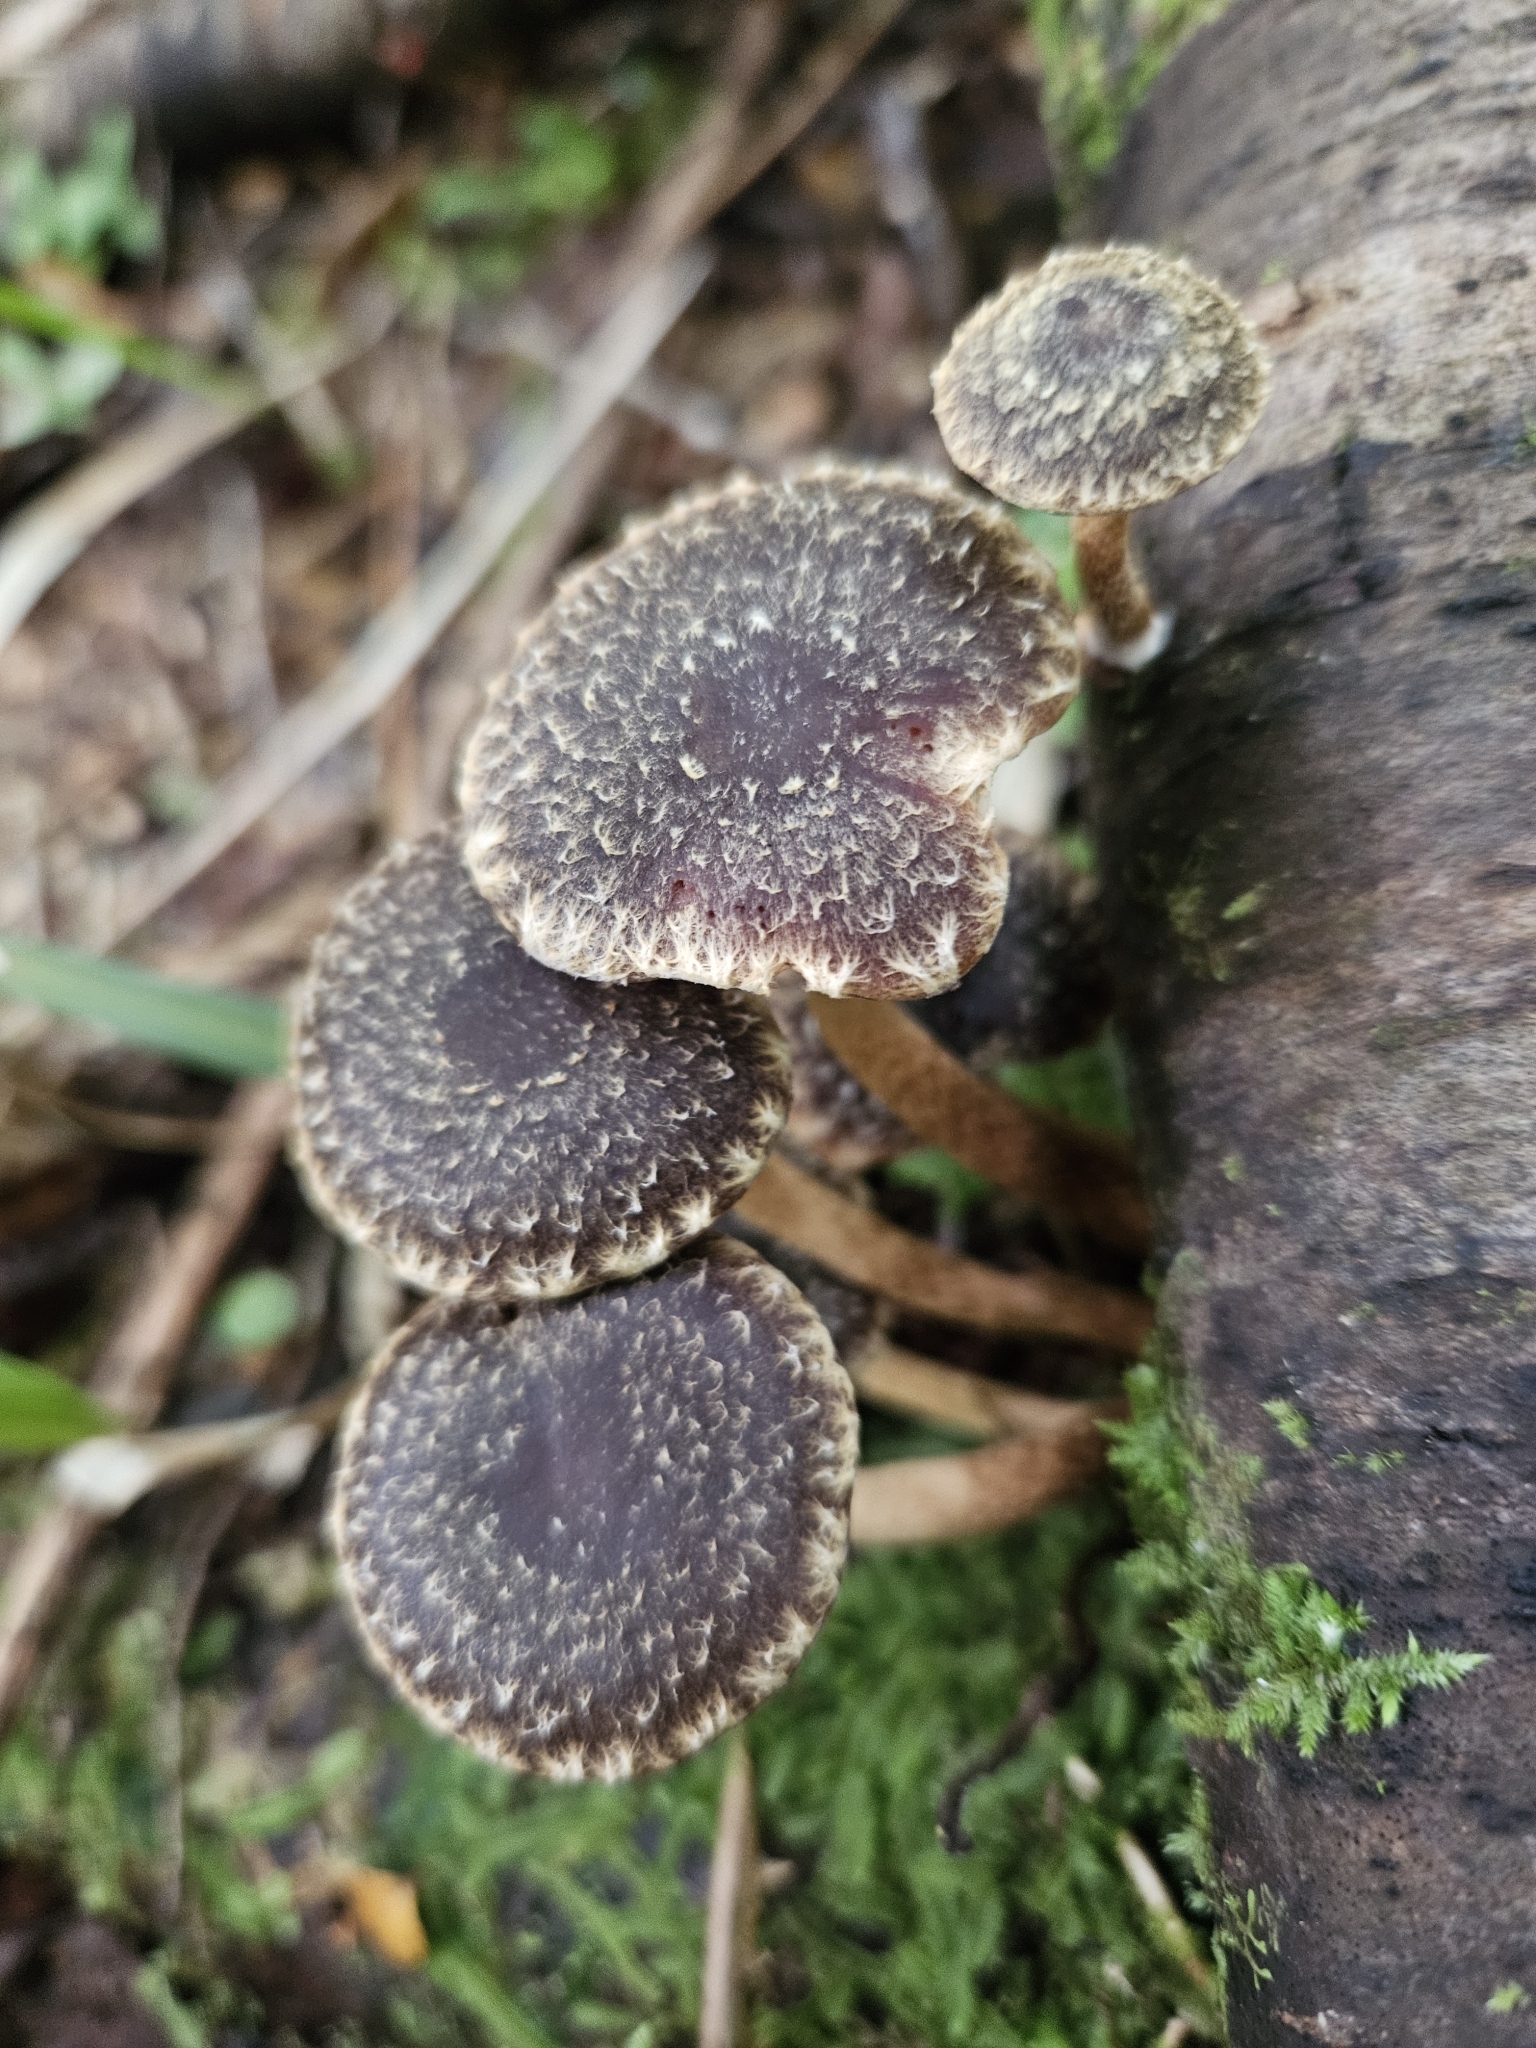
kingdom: Fungi
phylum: Basidiomycota
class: Agaricomycetes
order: Agaricales
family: Strophariaceae
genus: Hypholoma
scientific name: Hypholoma brunneum
